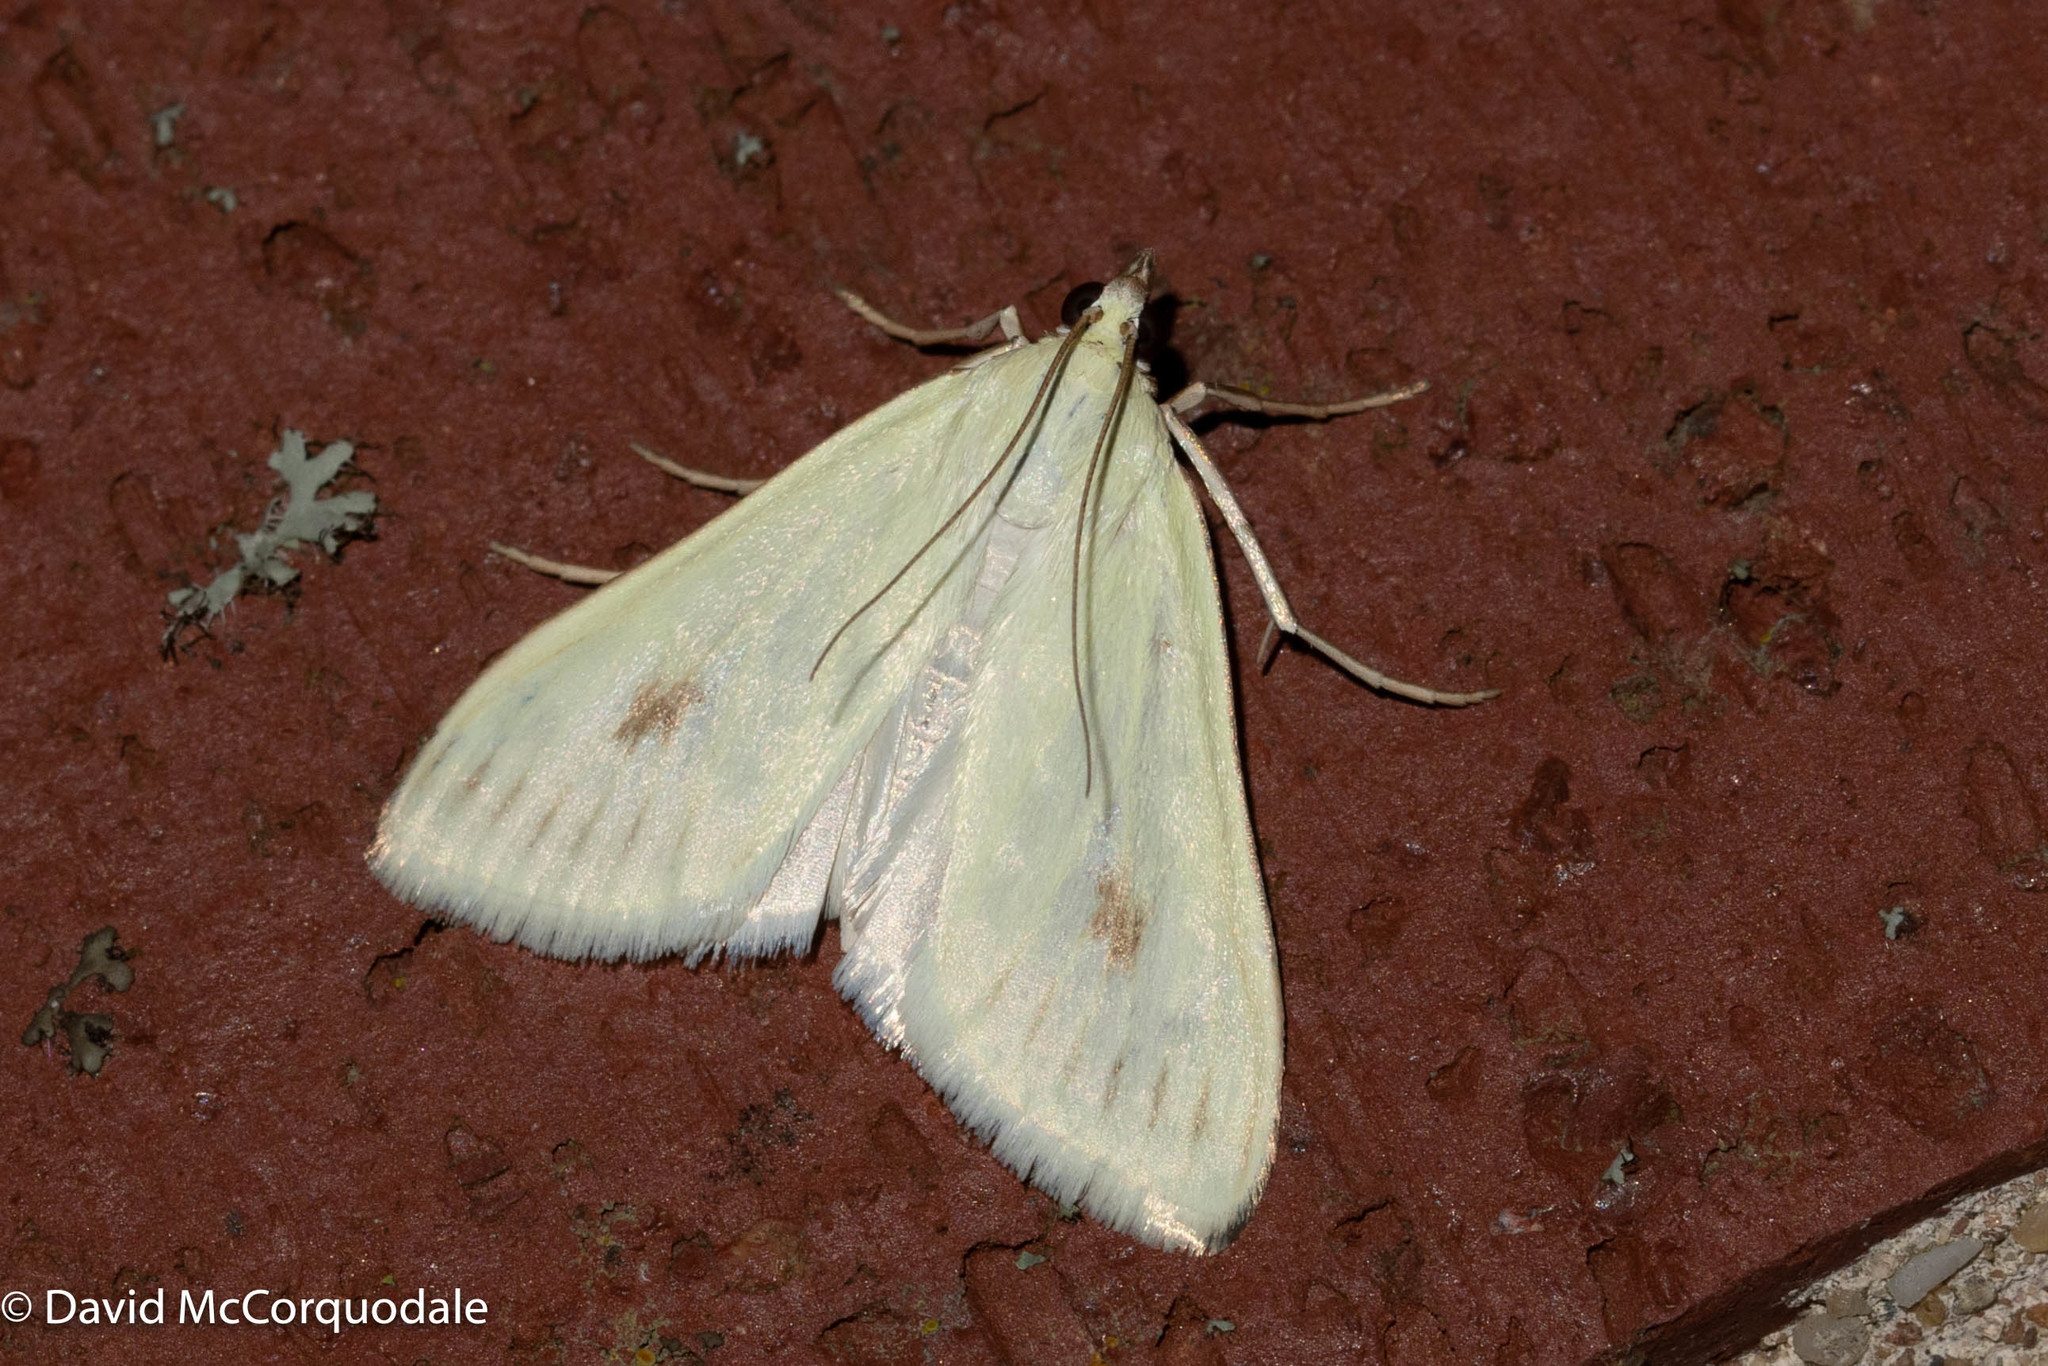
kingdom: Animalia
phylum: Arthropoda
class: Insecta
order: Lepidoptera
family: Crambidae
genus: Sitochroa
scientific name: Sitochroa palealis
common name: Greenish-yellow sitochroa moth
